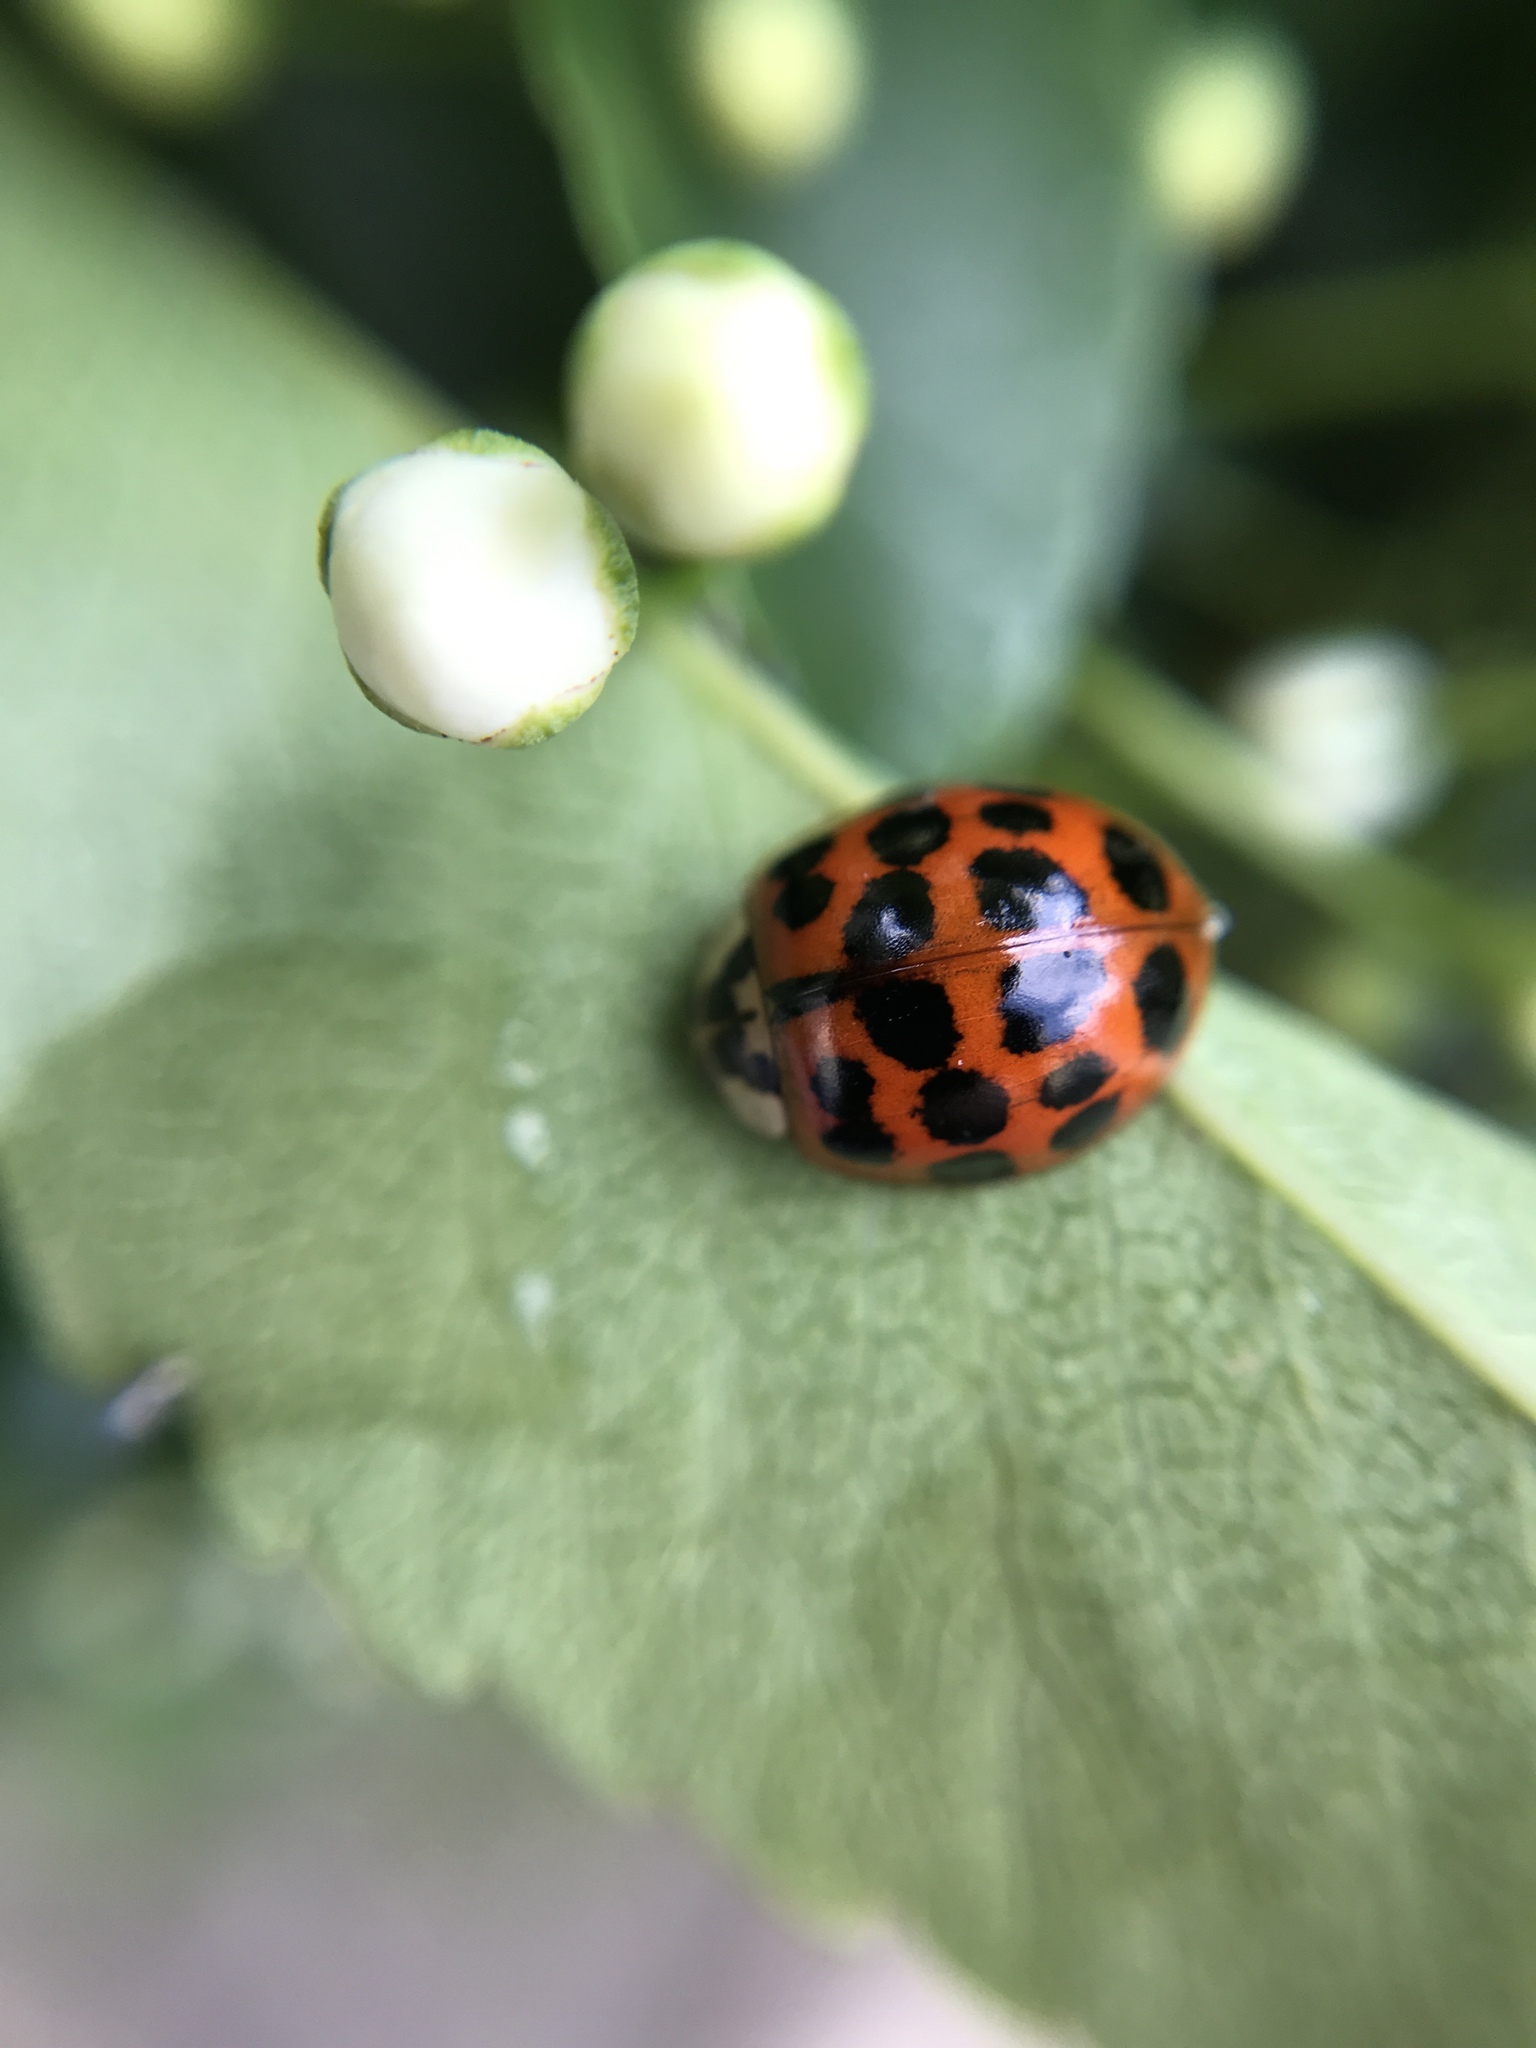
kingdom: Animalia
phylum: Arthropoda
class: Insecta
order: Coleoptera
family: Coccinellidae
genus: Harmonia
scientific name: Harmonia axyridis
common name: Harlequin ladybird
